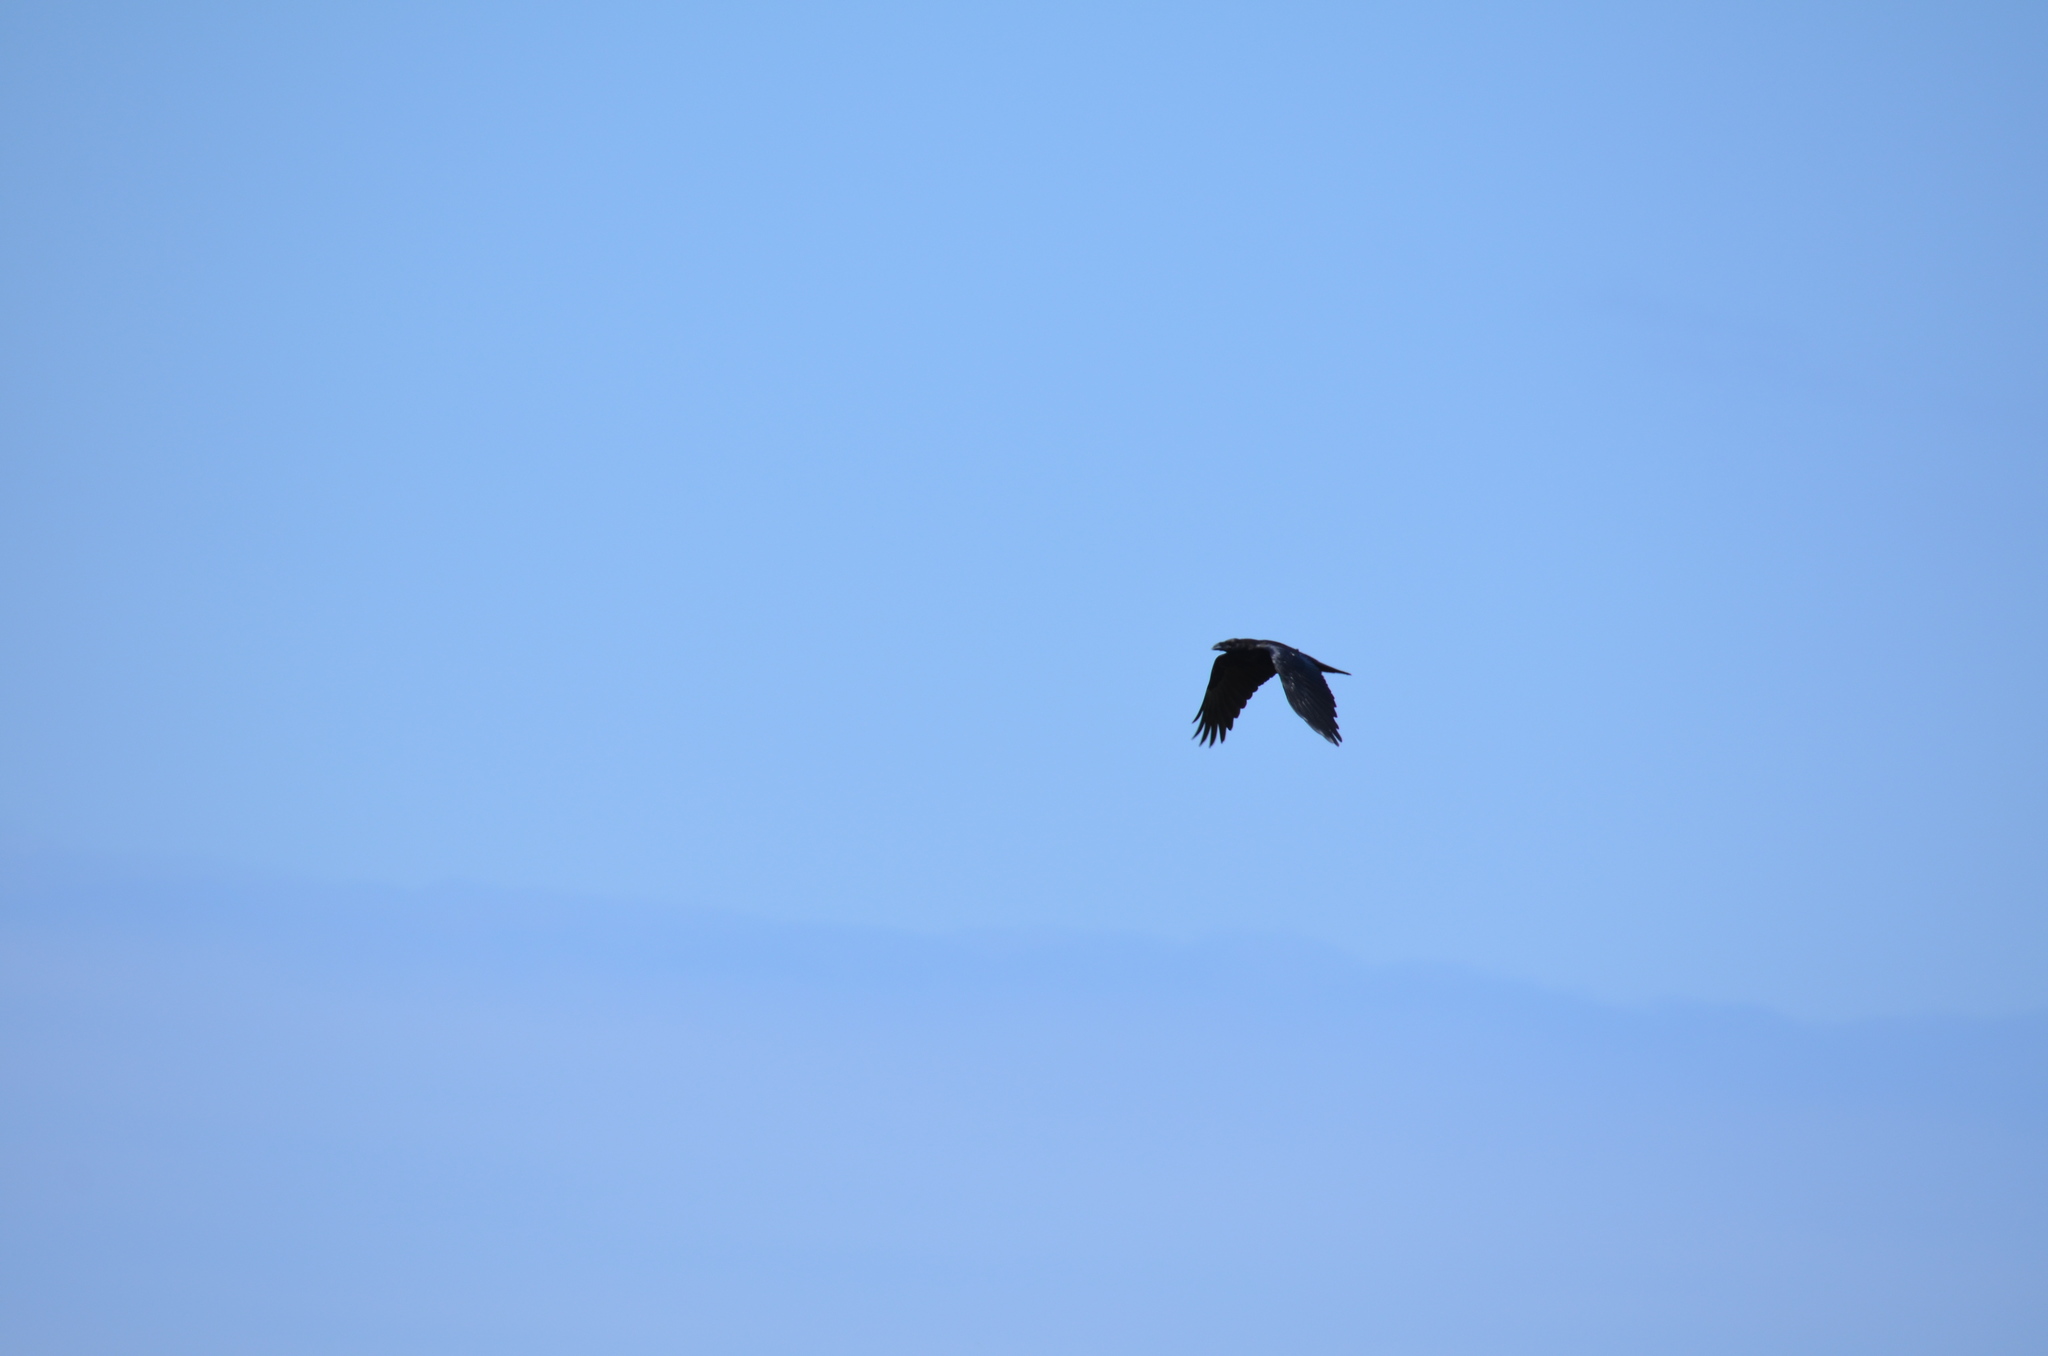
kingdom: Animalia
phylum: Chordata
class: Aves
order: Passeriformes
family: Corvidae
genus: Corvus
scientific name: Corvus corax
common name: Common raven
